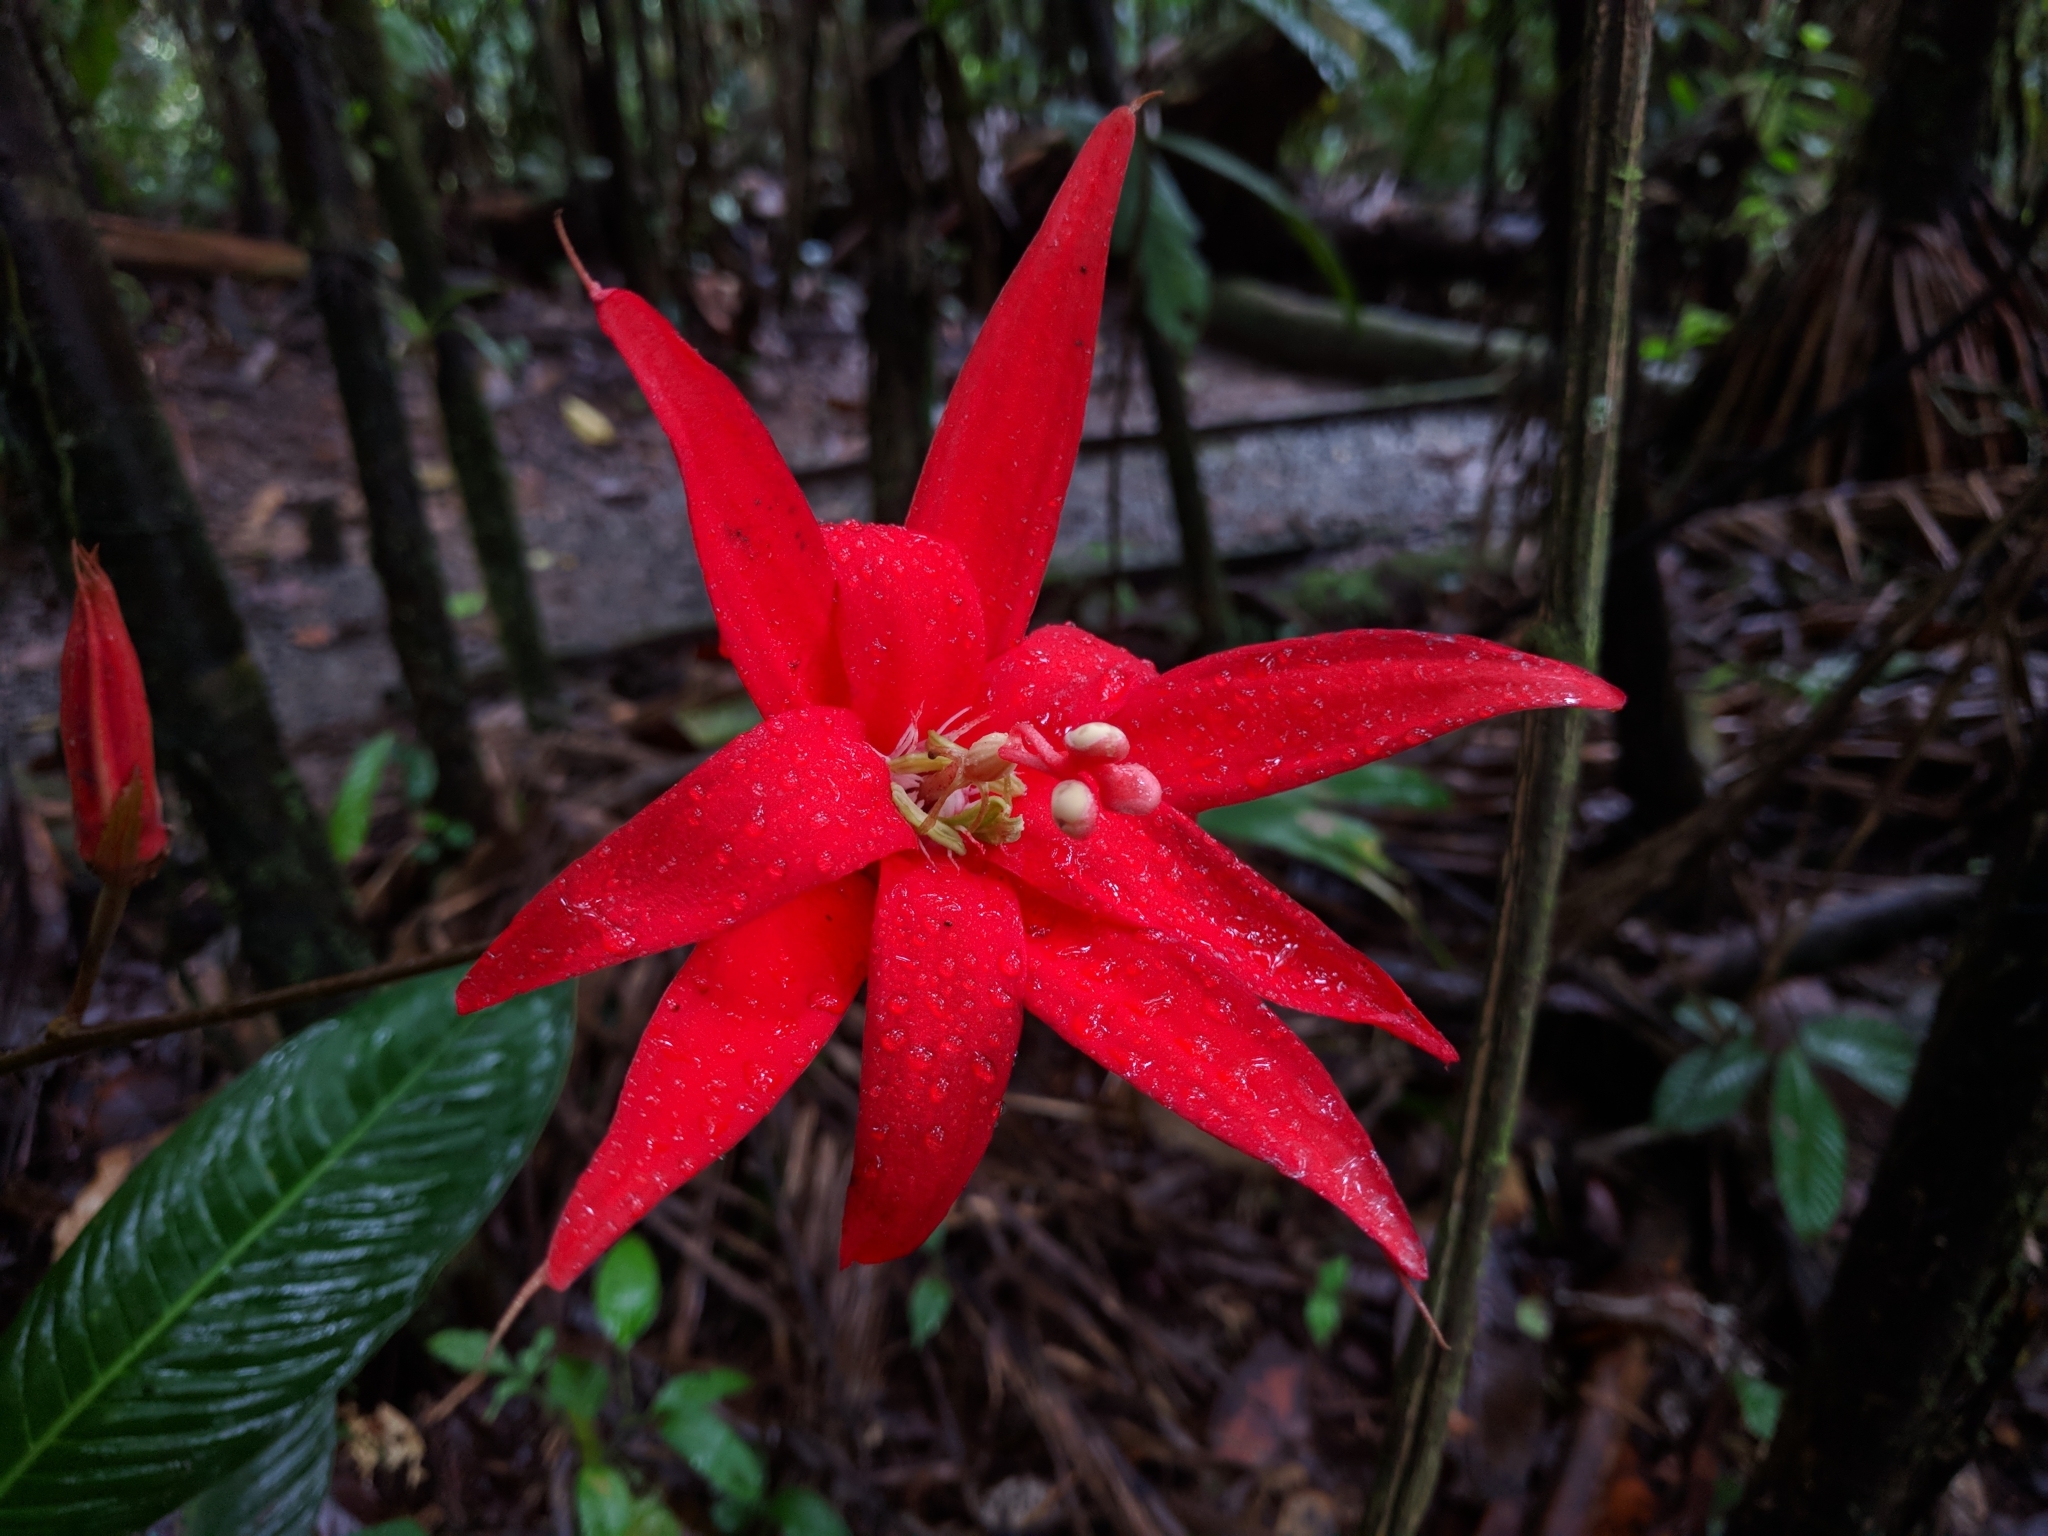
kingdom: Plantae
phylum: Tracheophyta
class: Magnoliopsida
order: Malpighiales
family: Passifloraceae
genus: Passiflora
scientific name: Passiflora vitifolia
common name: Perfumed passionflower
